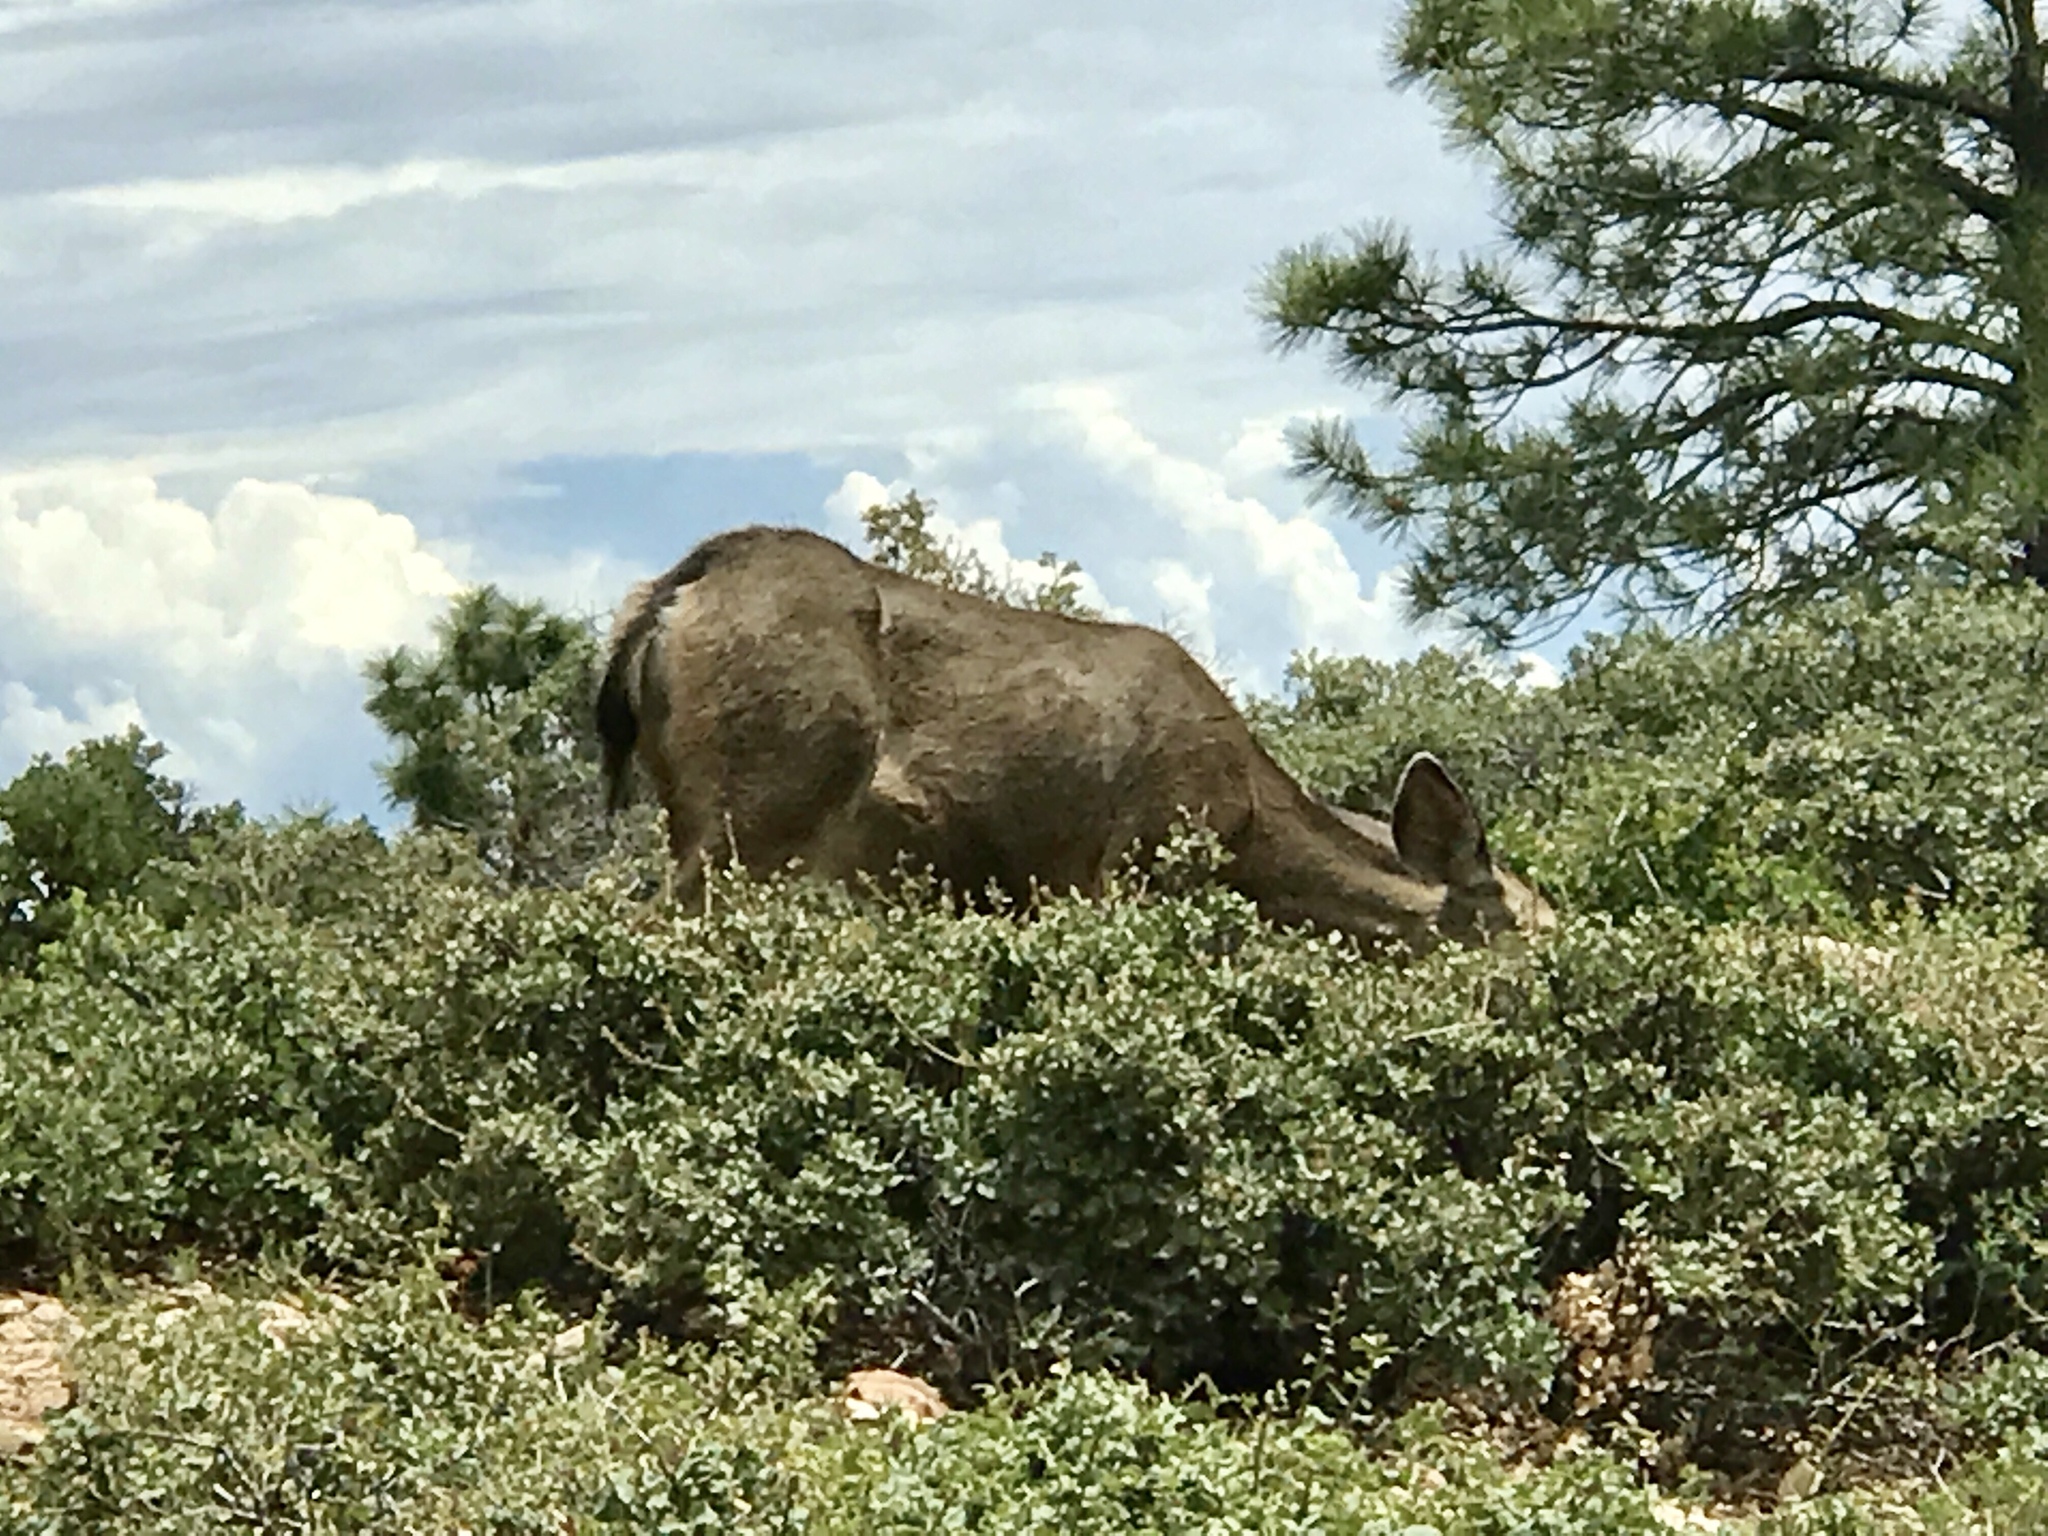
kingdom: Animalia
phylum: Chordata
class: Mammalia
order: Artiodactyla
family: Cervidae
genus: Odocoileus
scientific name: Odocoileus hemionus
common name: Mule deer
